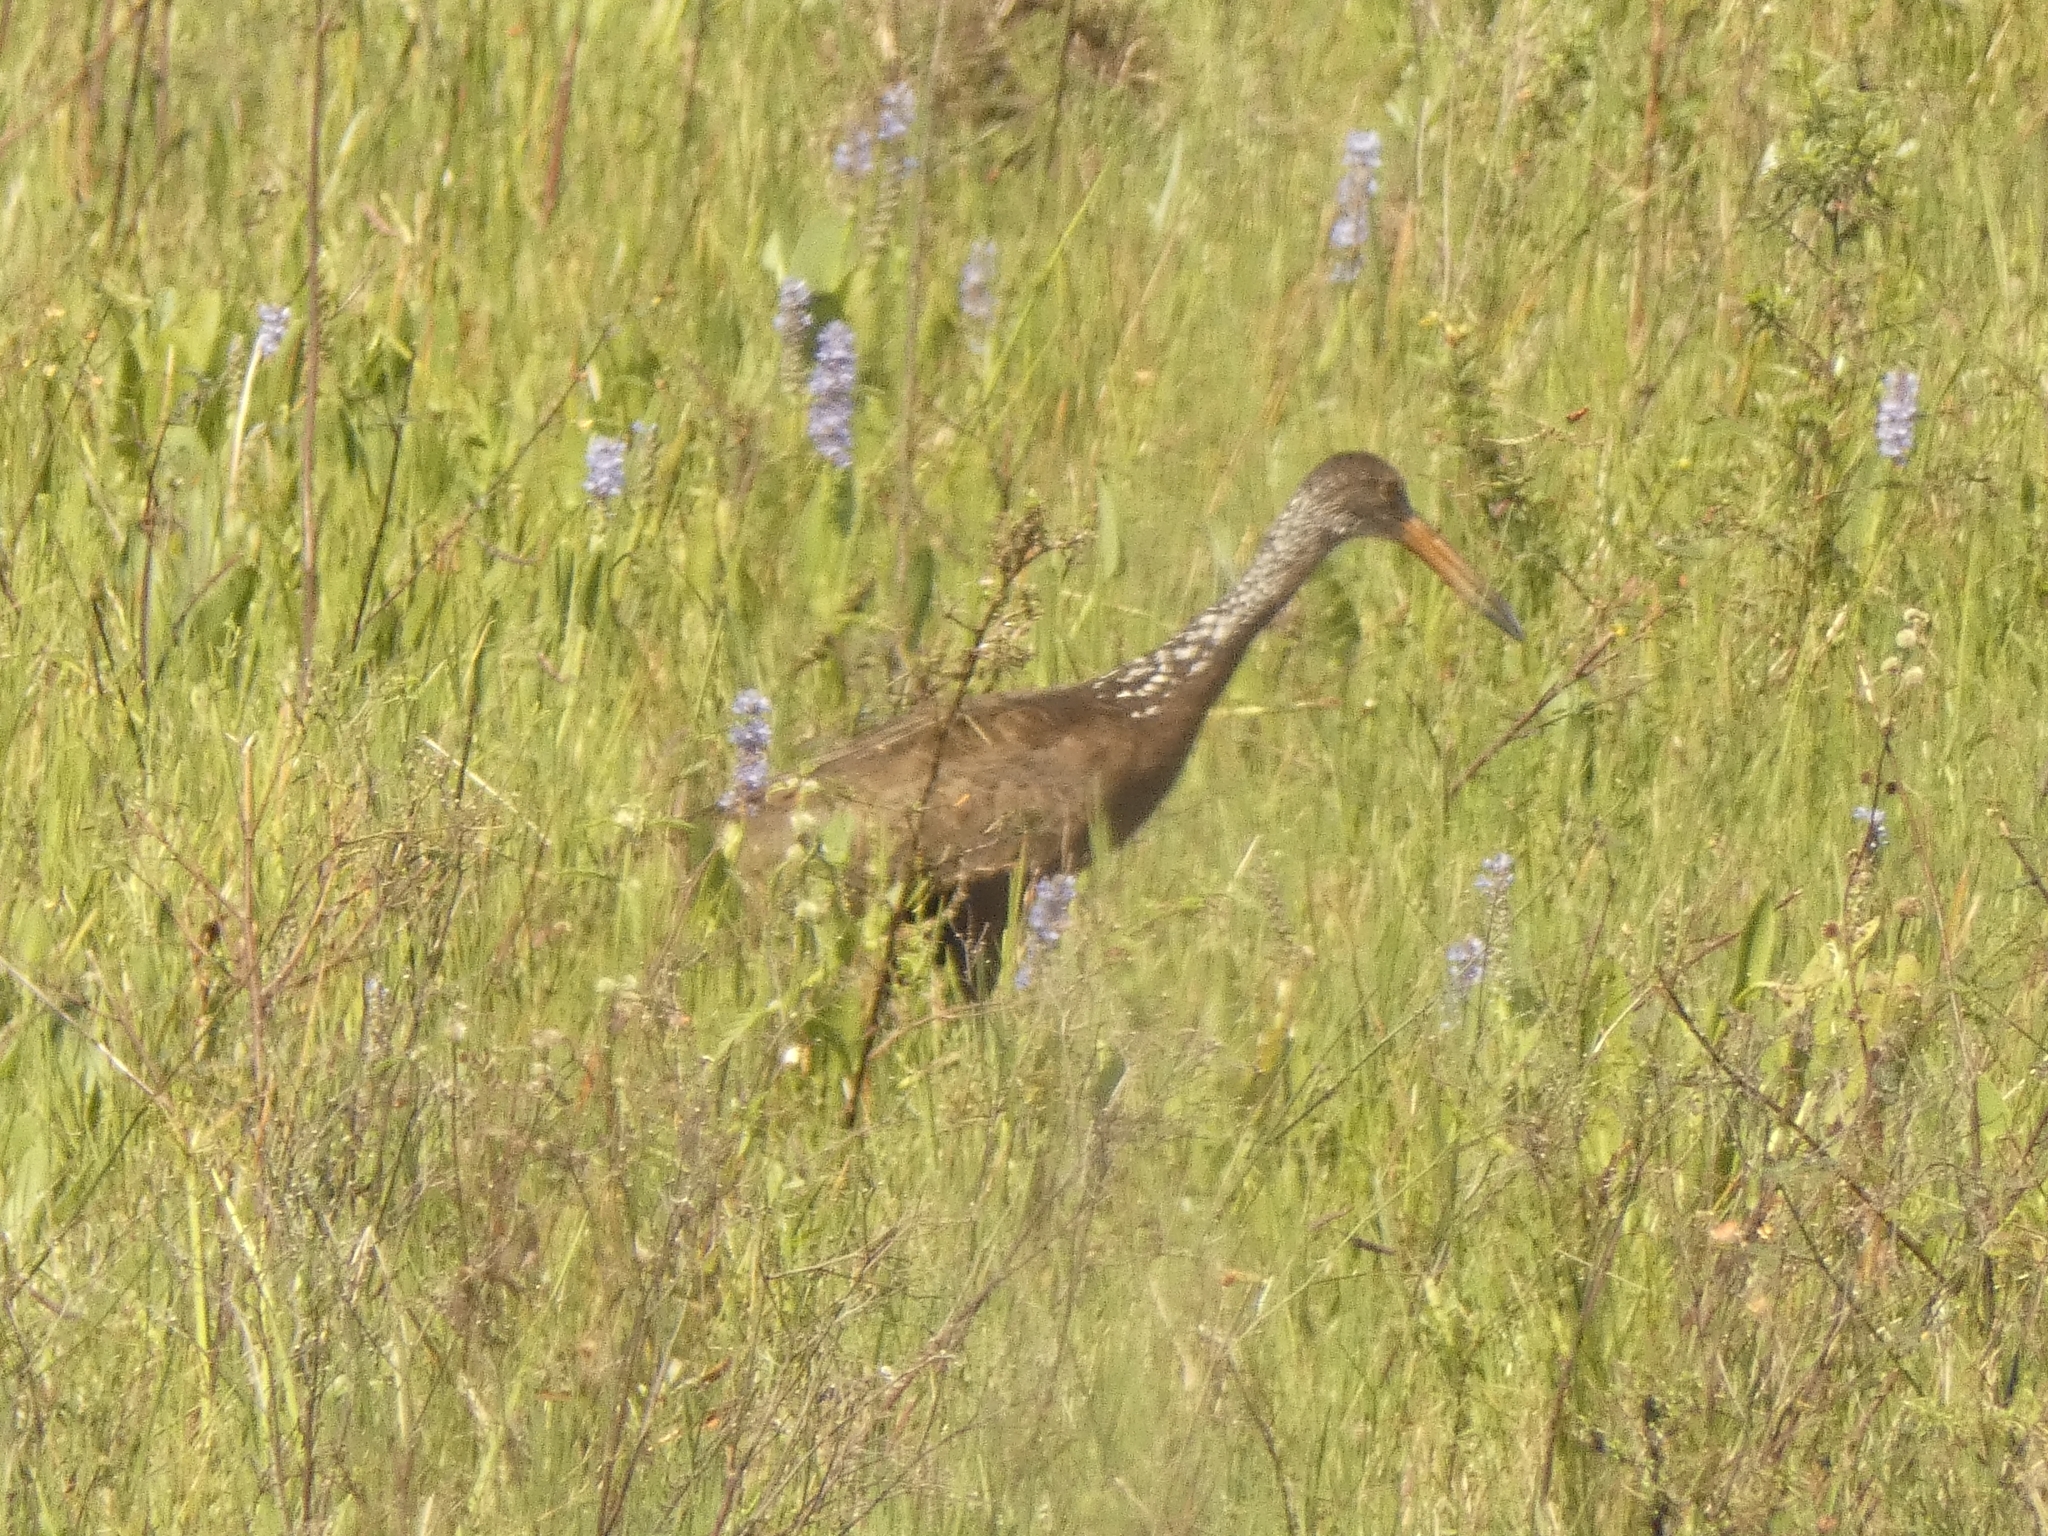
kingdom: Animalia
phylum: Chordata
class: Aves
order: Gruiformes
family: Aramidae
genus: Aramus
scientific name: Aramus guarauna
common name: Limpkin
